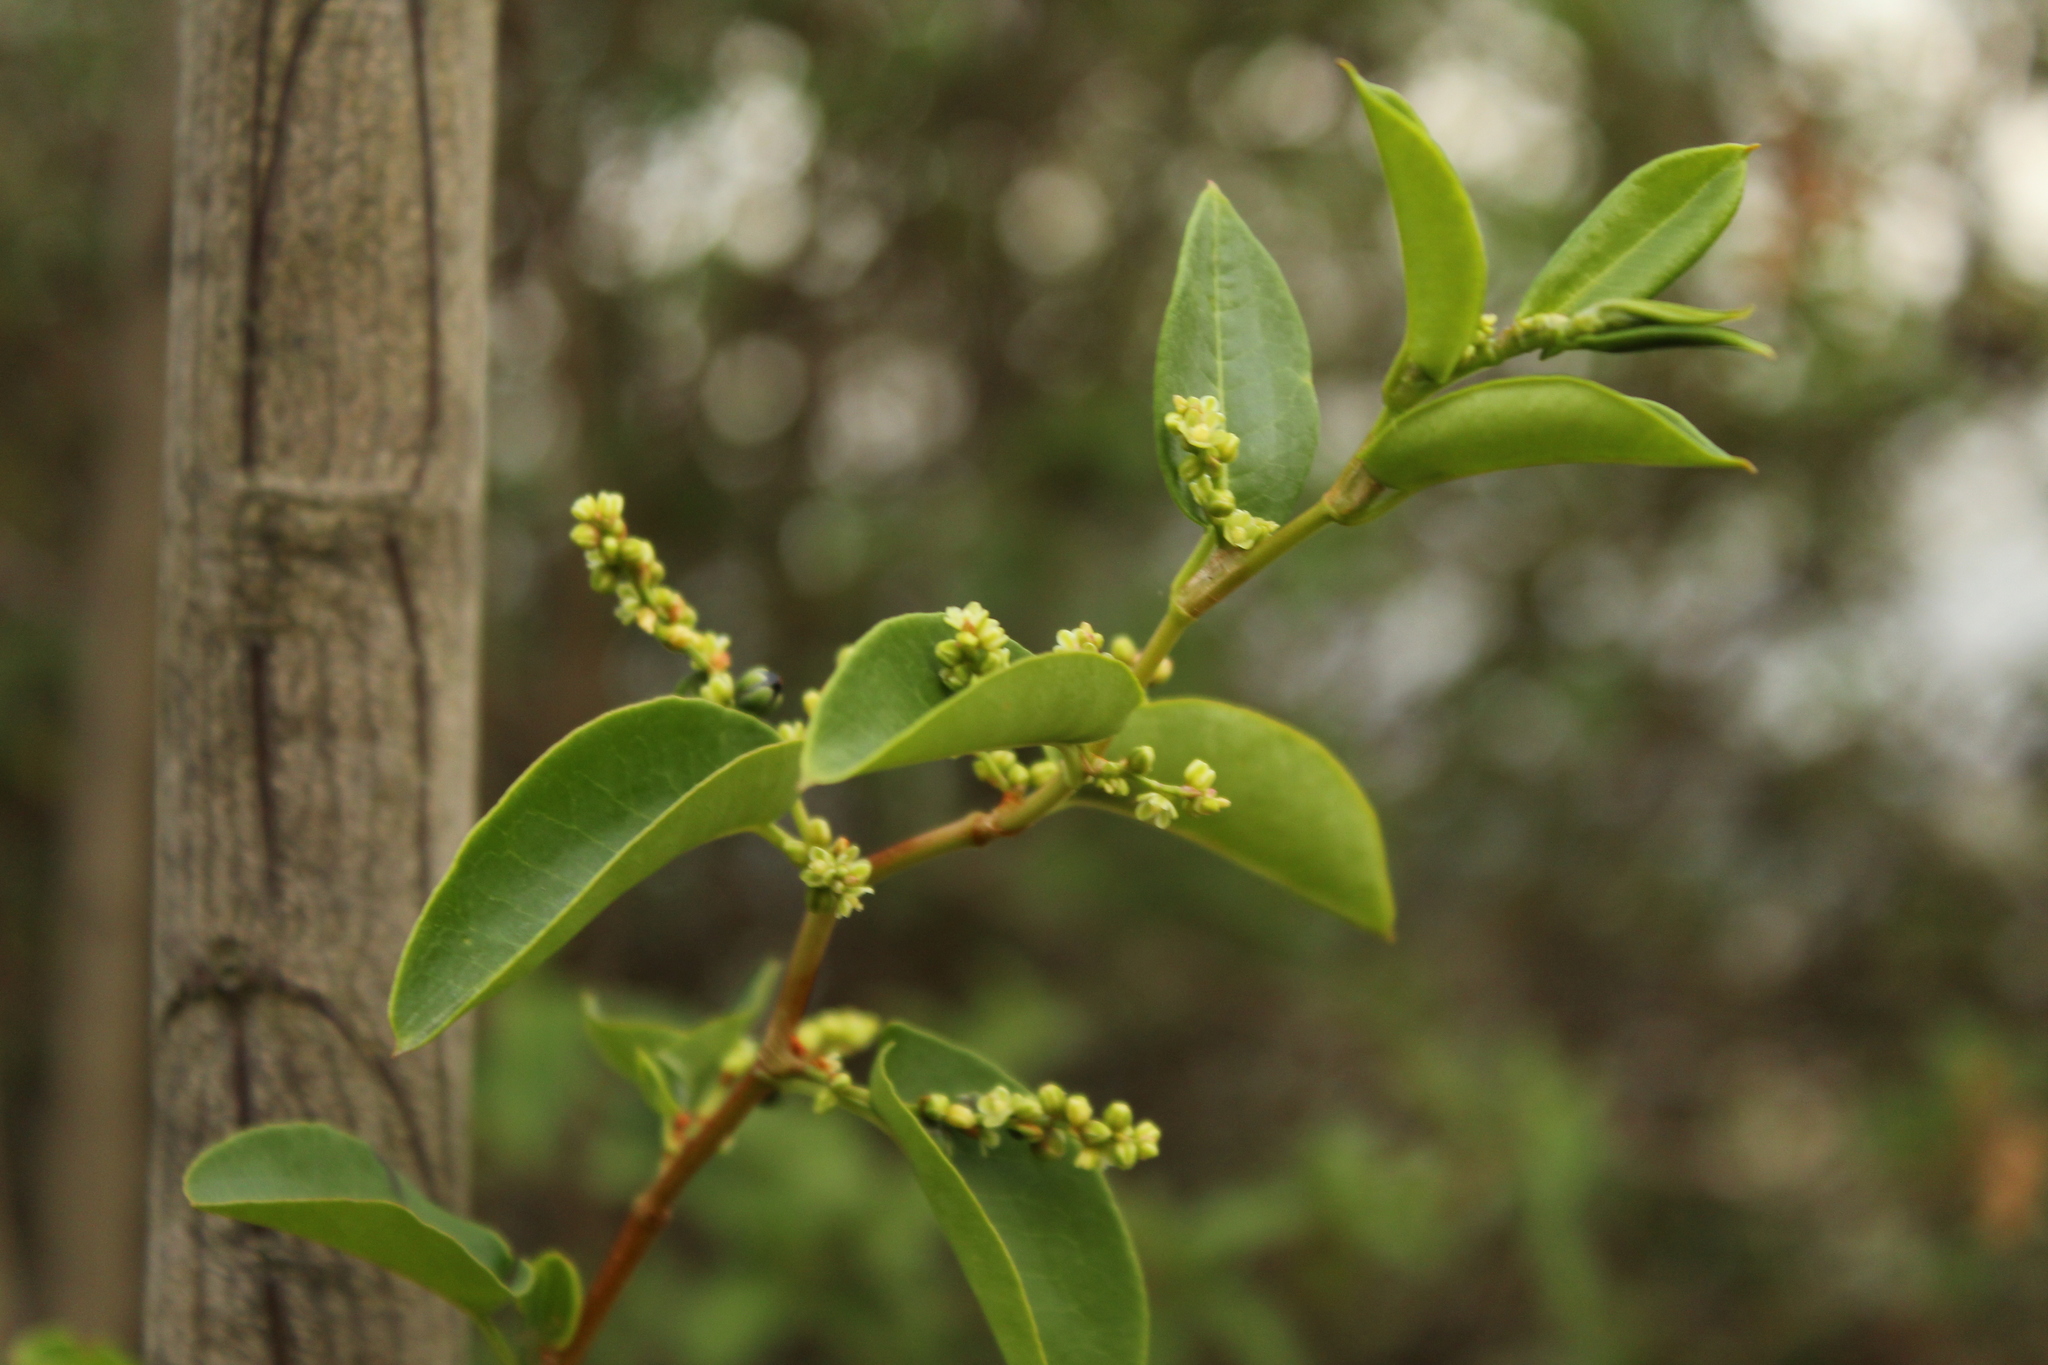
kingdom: Plantae
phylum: Tracheophyta
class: Magnoliopsida
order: Caryophyllales
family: Polygonaceae
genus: Muehlenbeckia
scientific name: Muehlenbeckia tamnifolia
